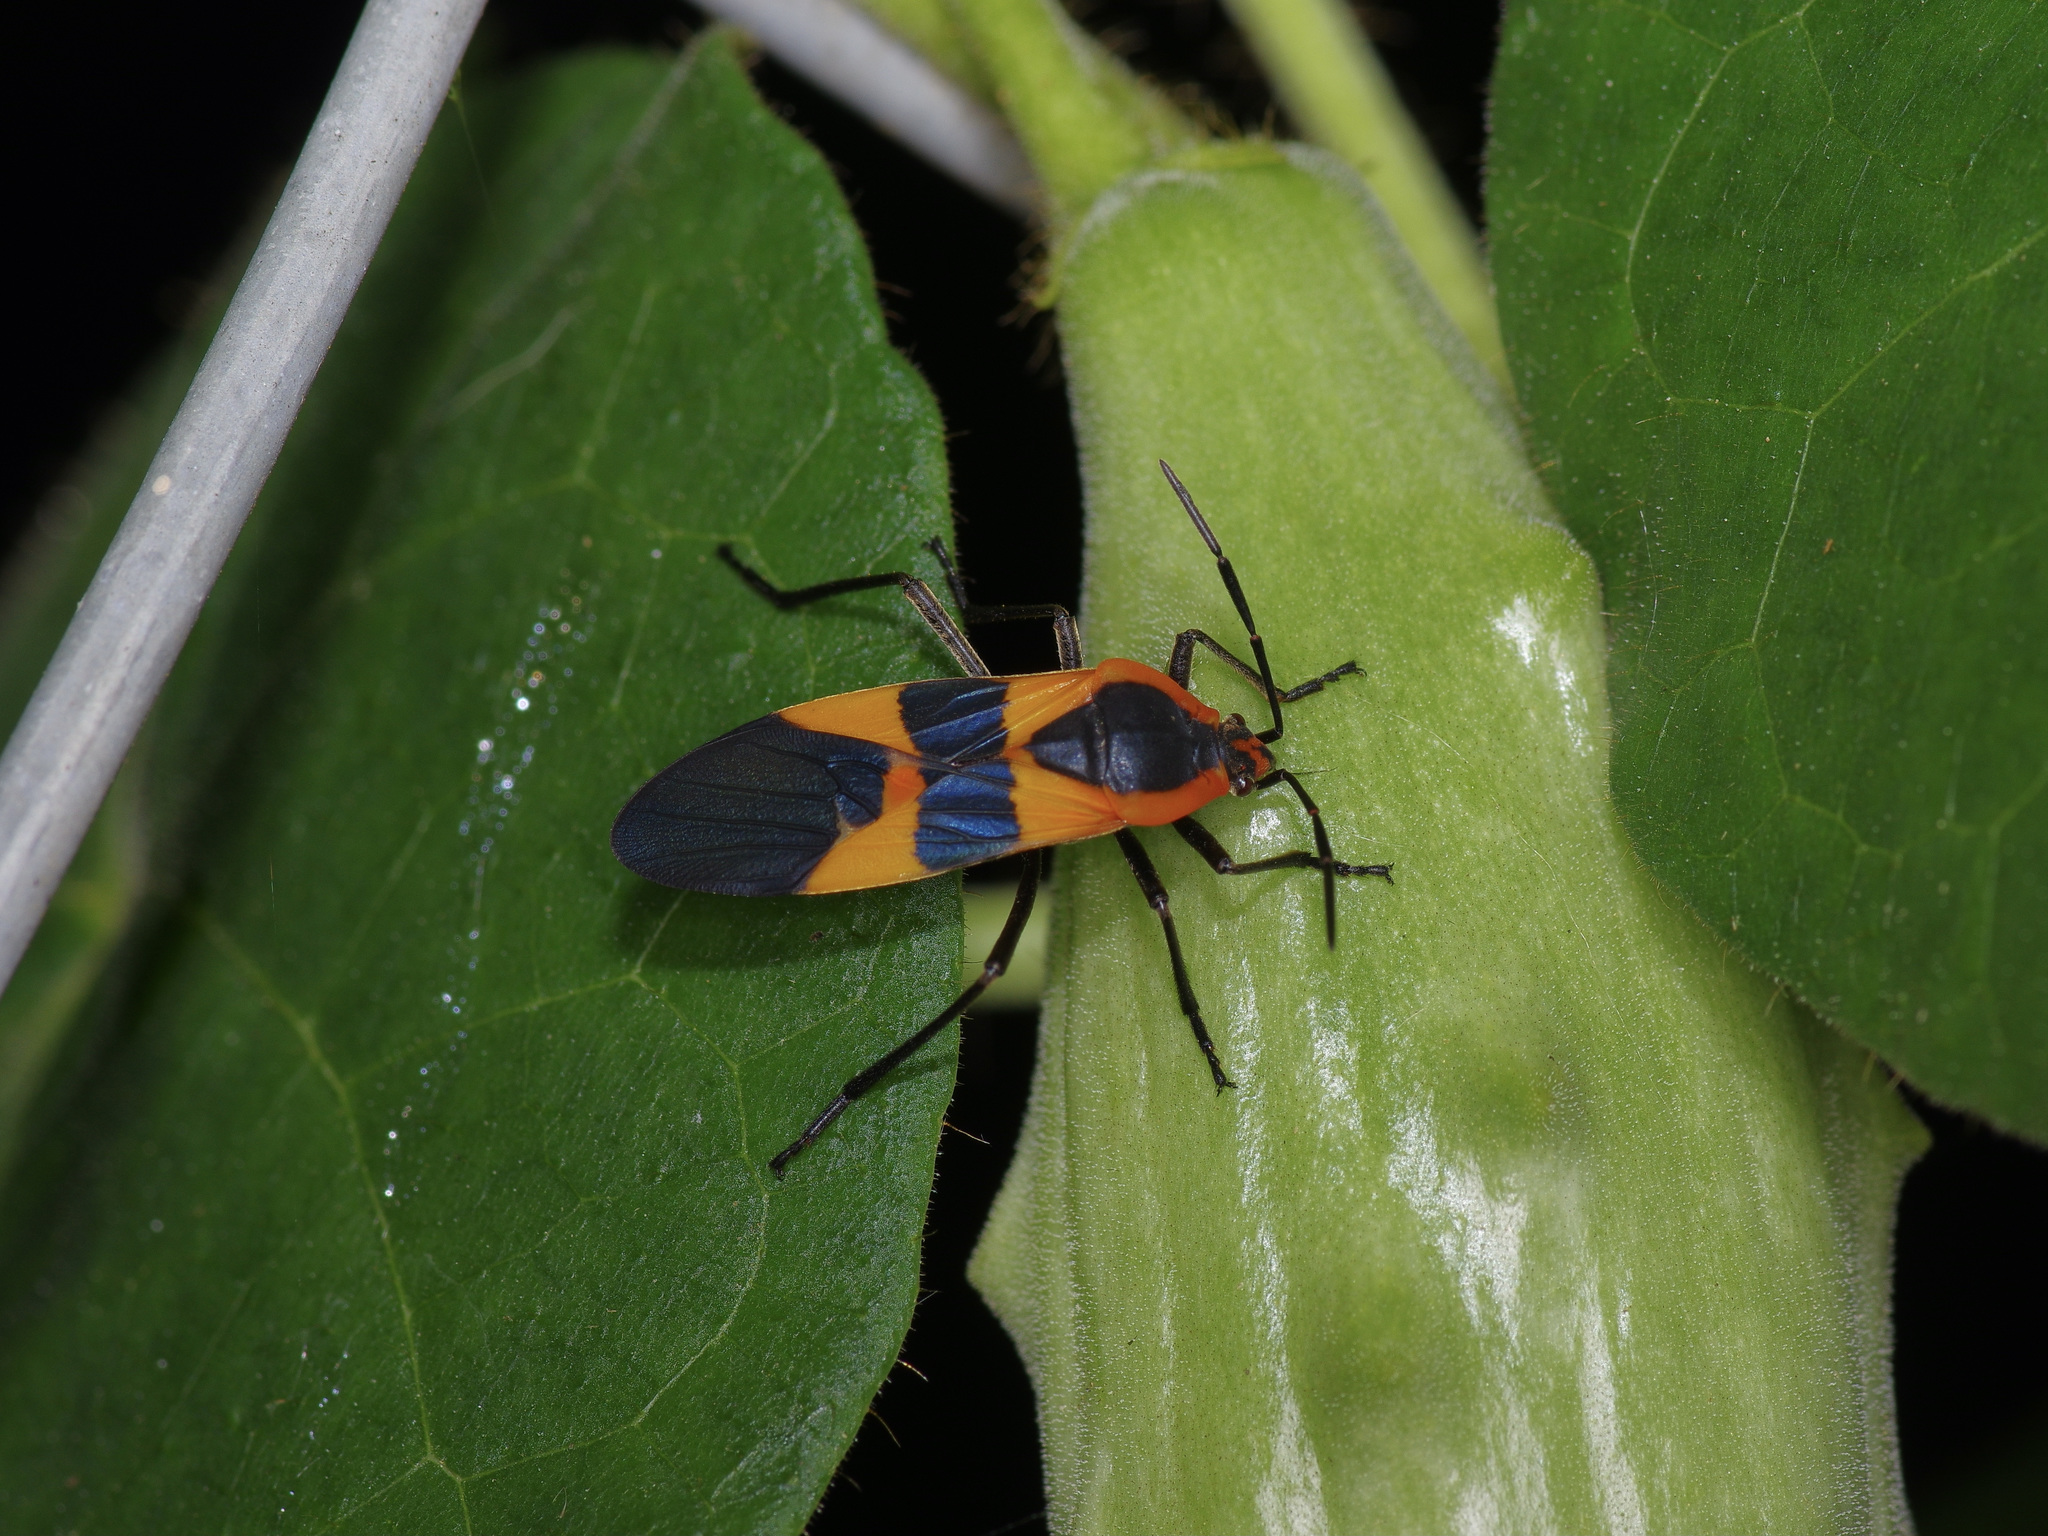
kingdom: Animalia
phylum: Arthropoda
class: Insecta
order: Hemiptera
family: Lygaeidae
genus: Oncopeltus
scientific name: Oncopeltus fasciatus
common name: Large milkweed bug
